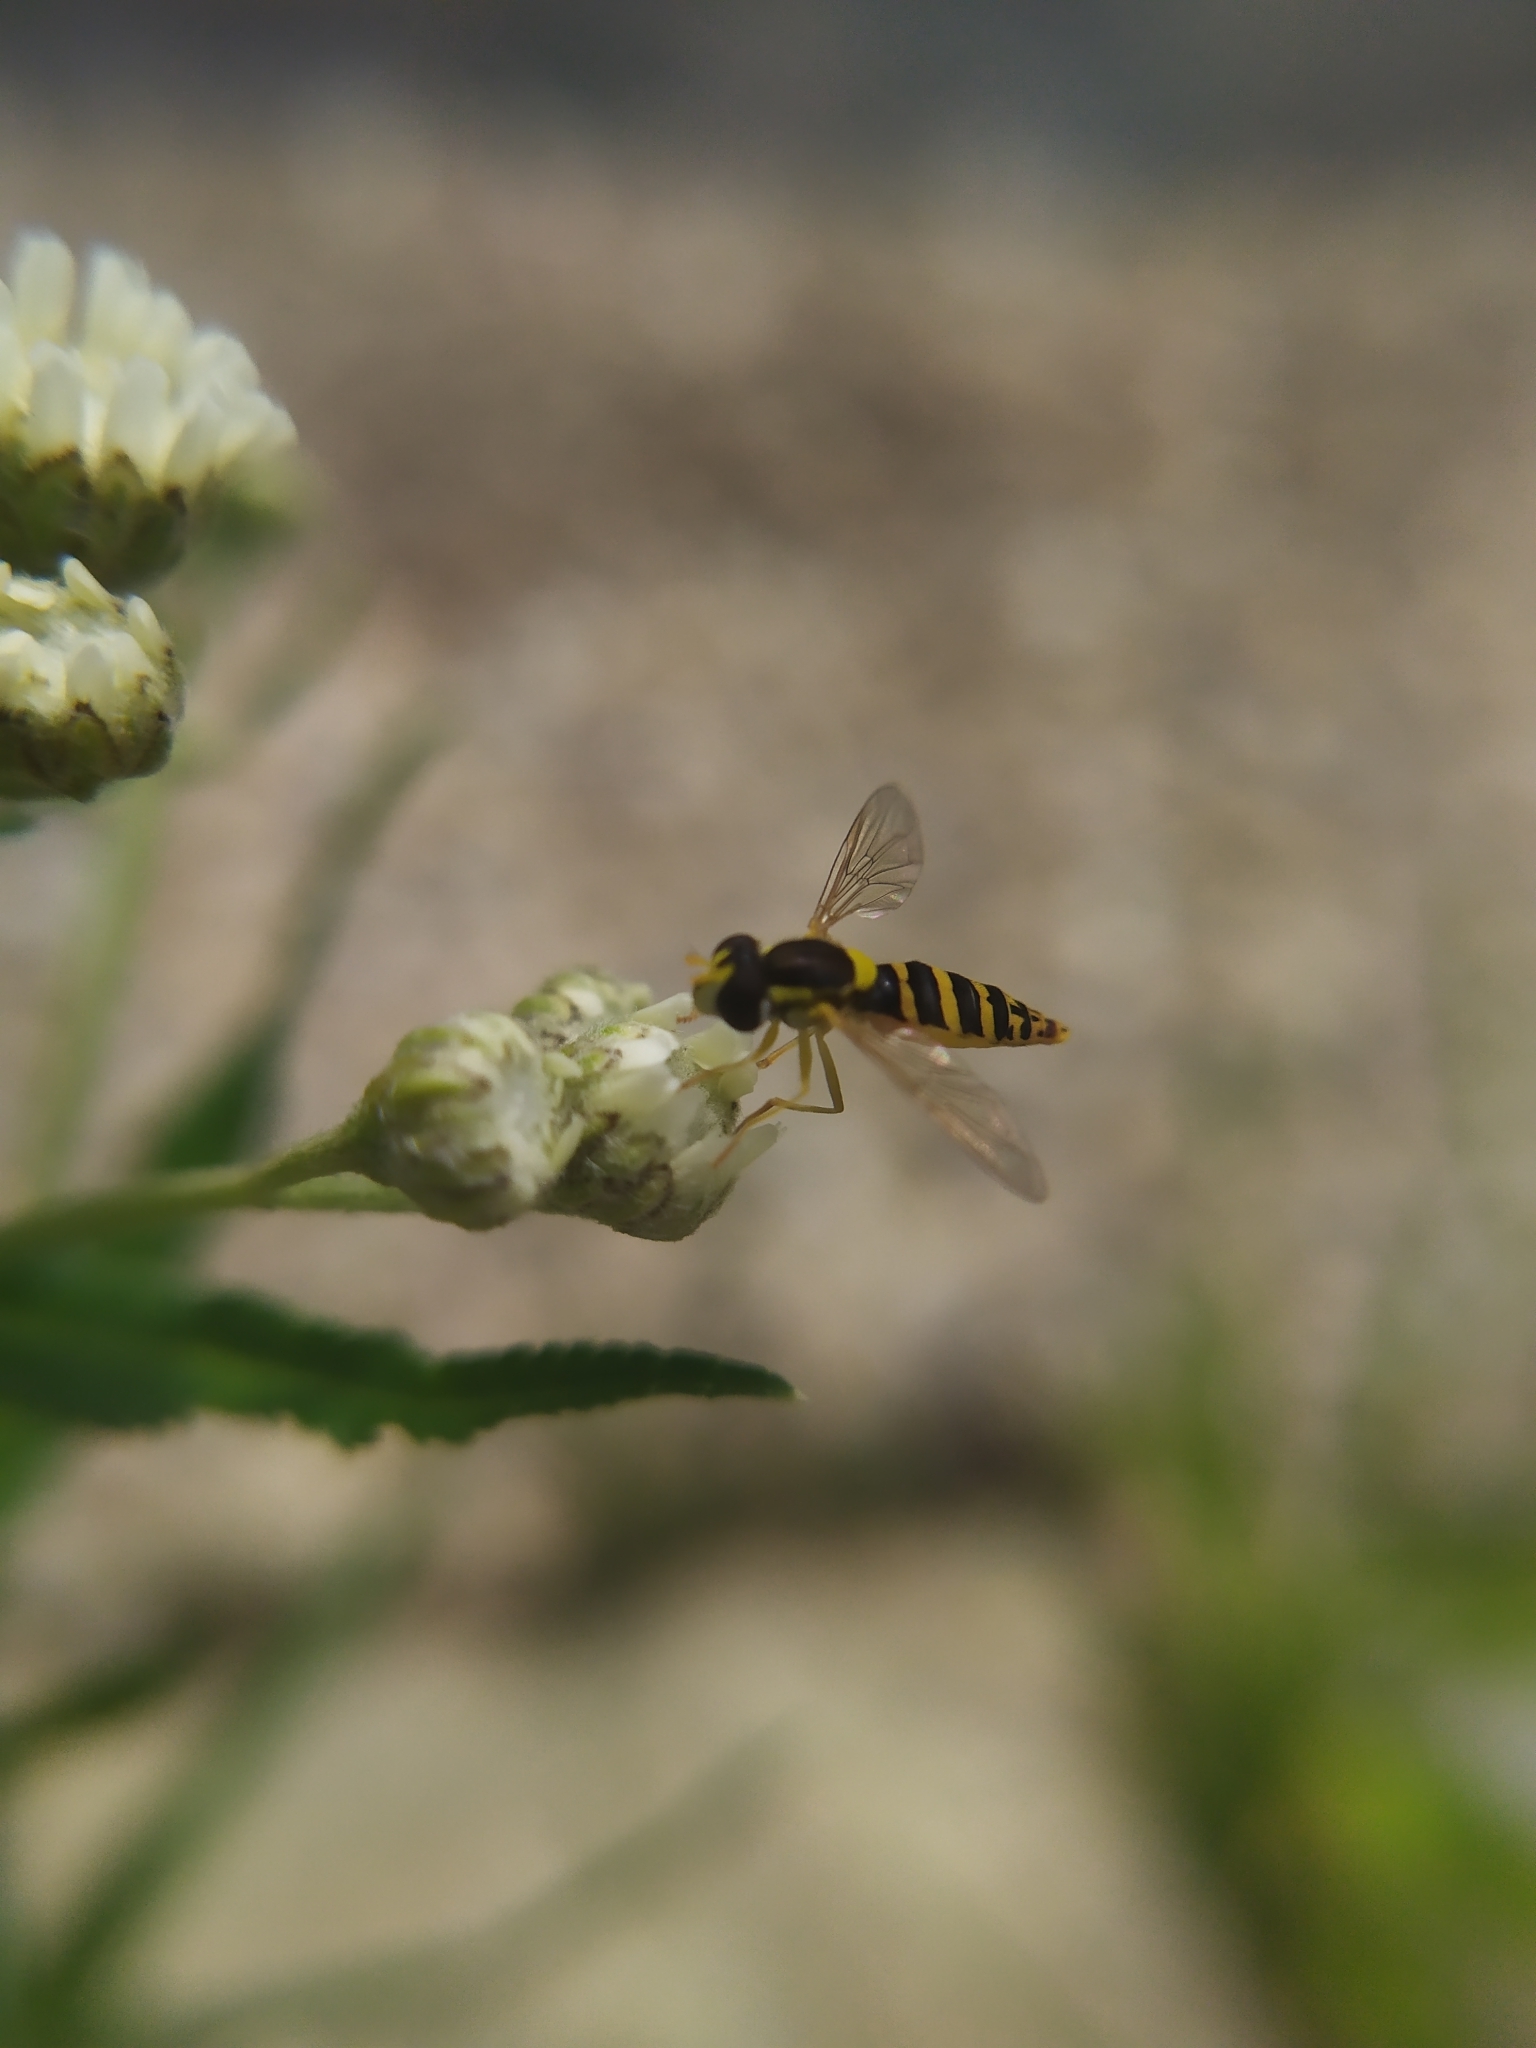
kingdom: Animalia
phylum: Arthropoda
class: Insecta
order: Diptera
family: Syrphidae
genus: Sphaerophoria
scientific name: Sphaerophoria
